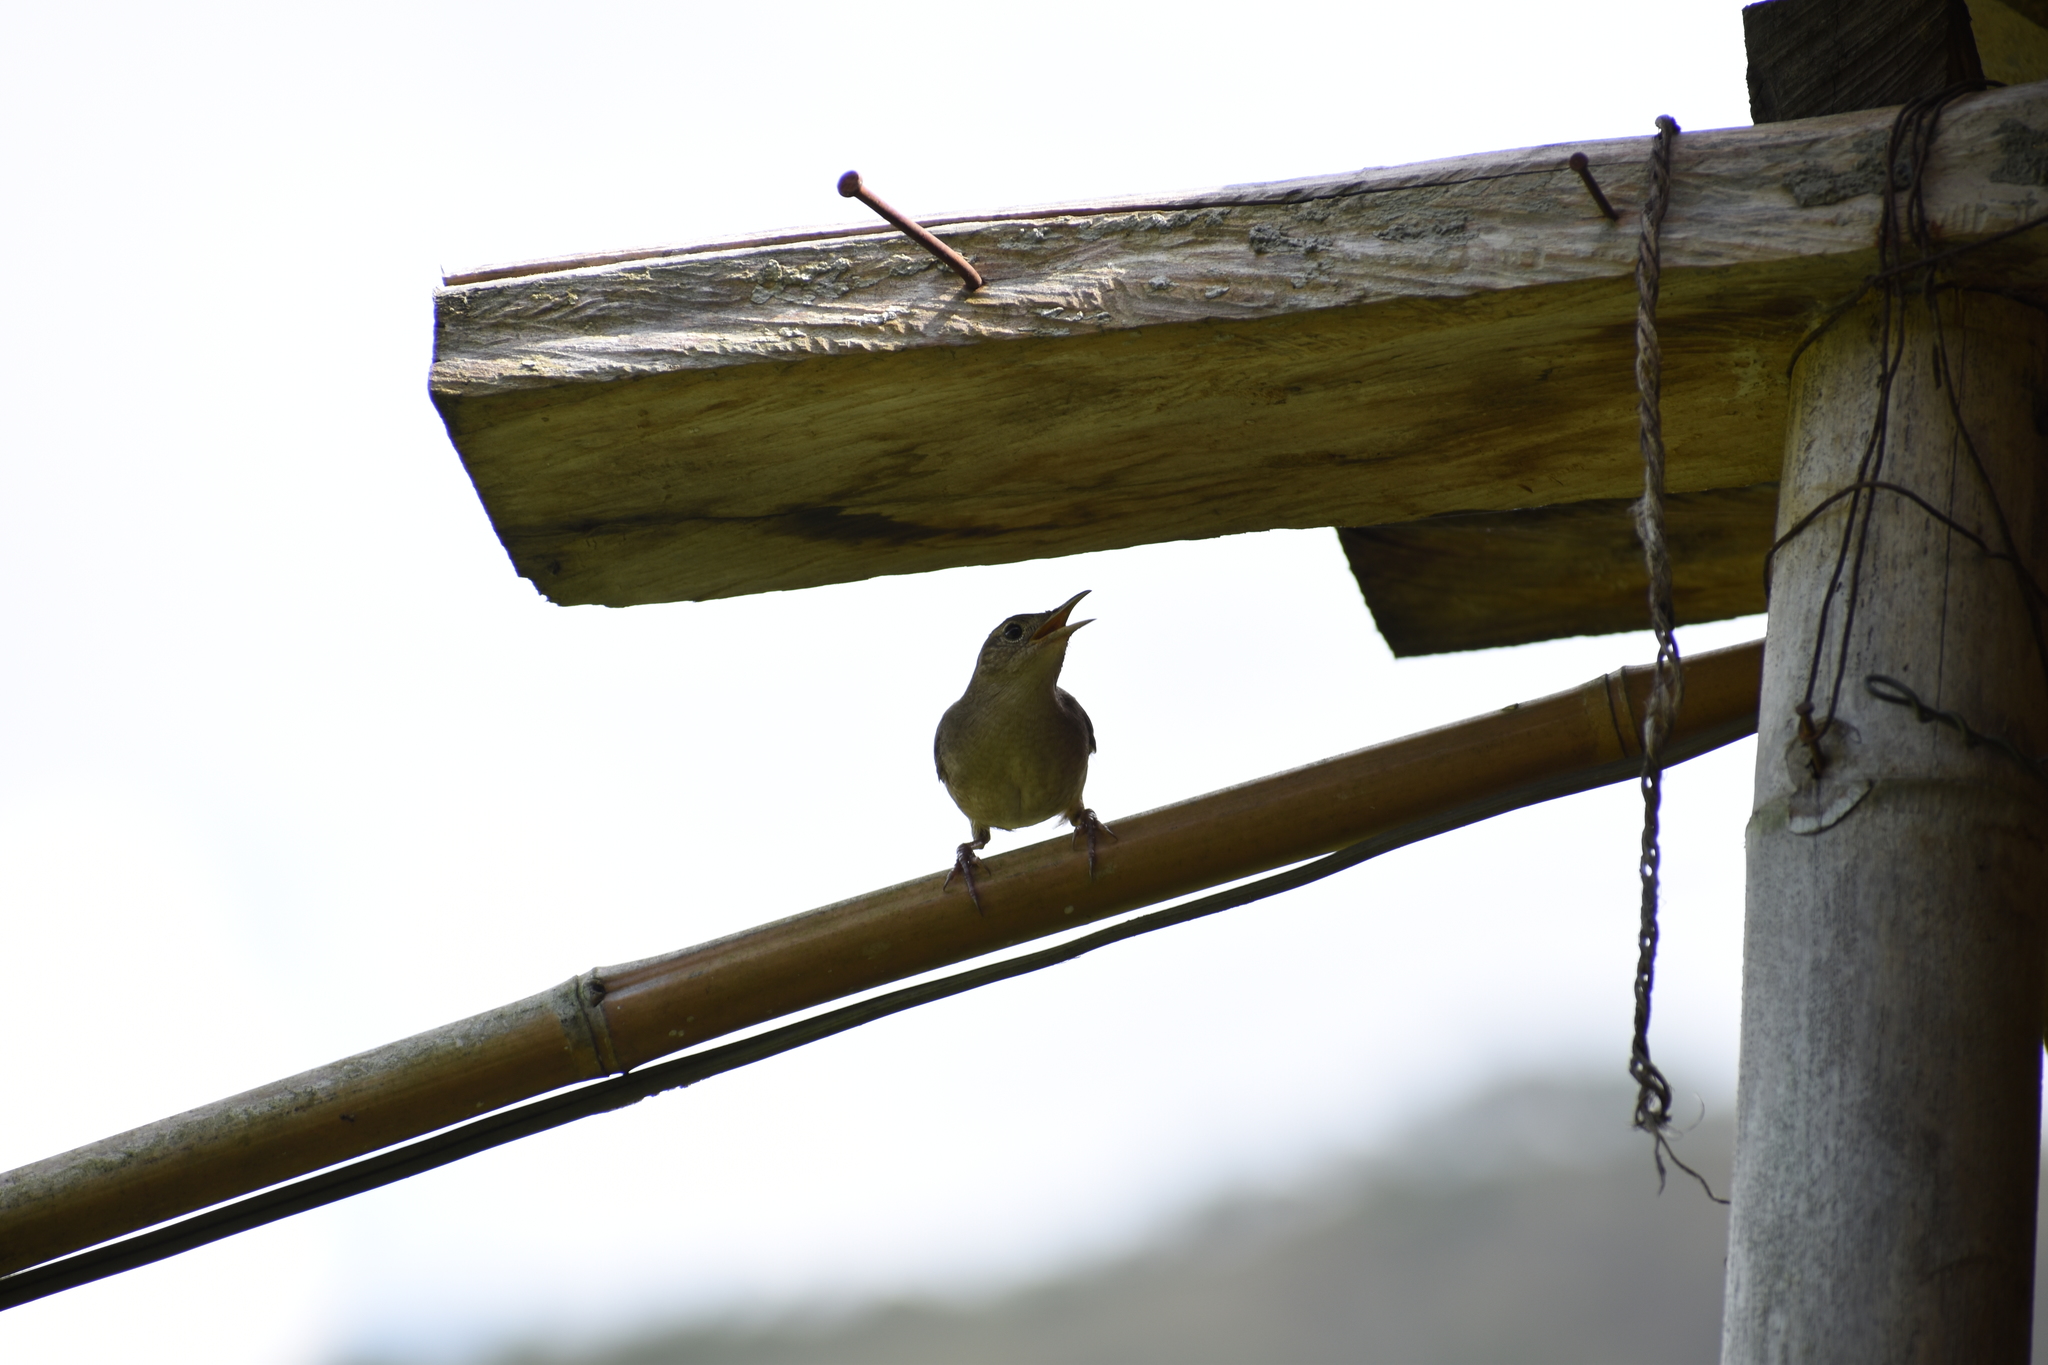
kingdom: Animalia
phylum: Chordata
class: Aves
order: Passeriformes
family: Troglodytidae
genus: Troglodytes
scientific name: Troglodytes aedon
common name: House wren
